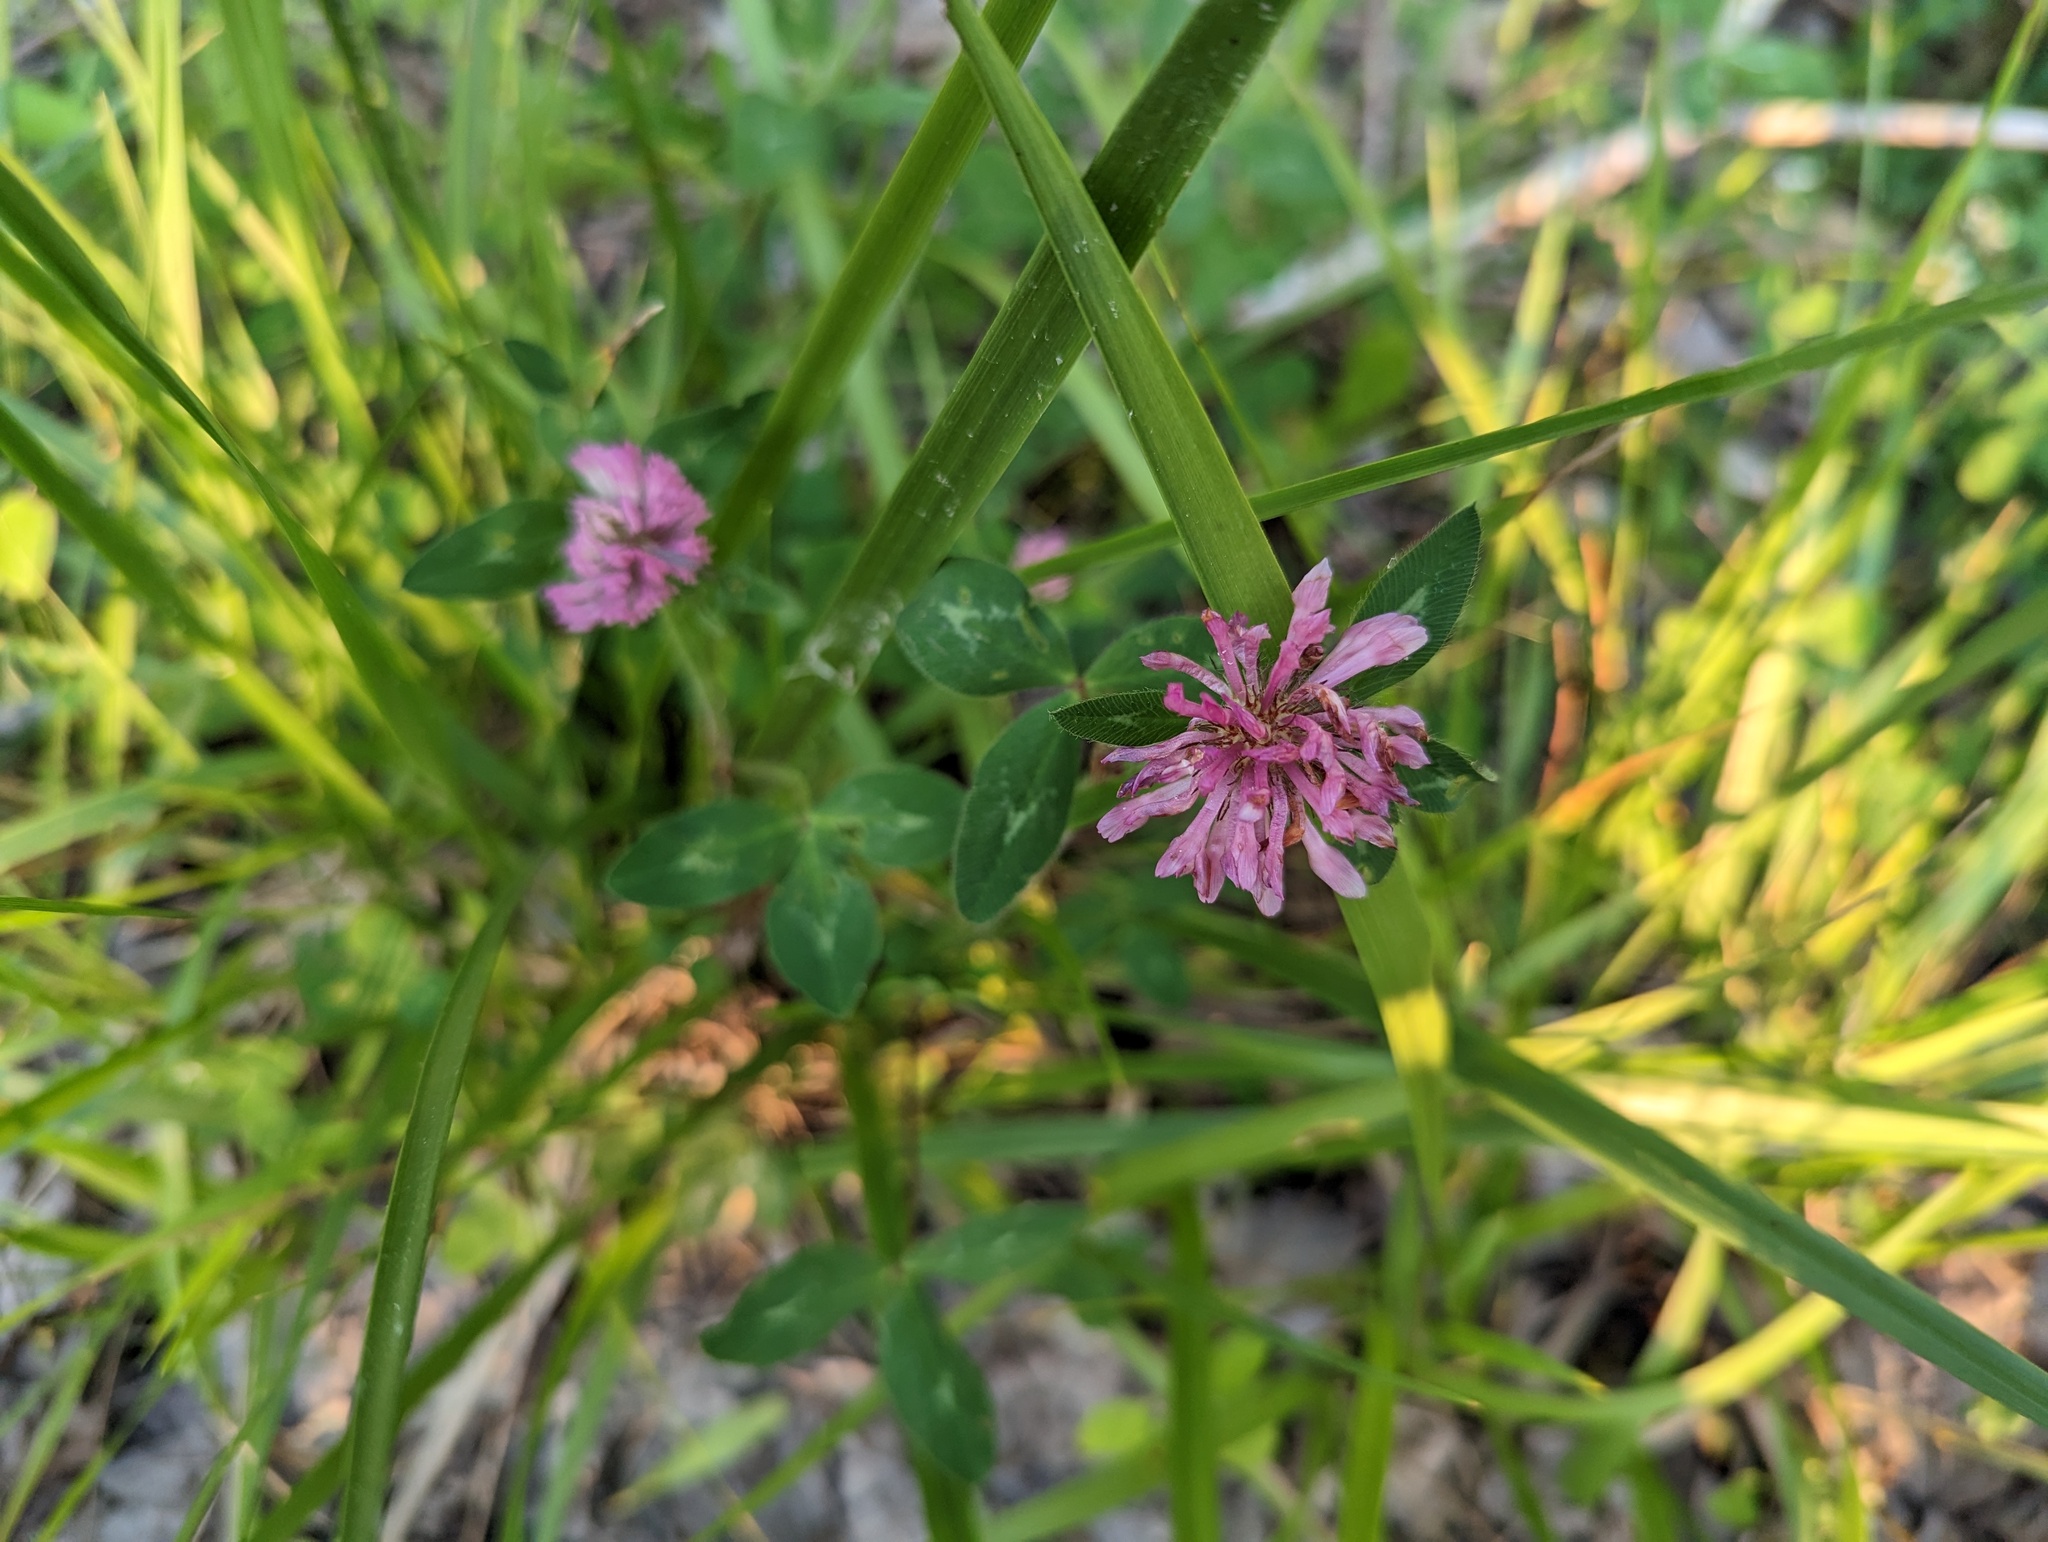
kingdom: Plantae
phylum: Tracheophyta
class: Magnoliopsida
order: Fabales
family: Fabaceae
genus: Trifolium
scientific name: Trifolium pratense
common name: Red clover
